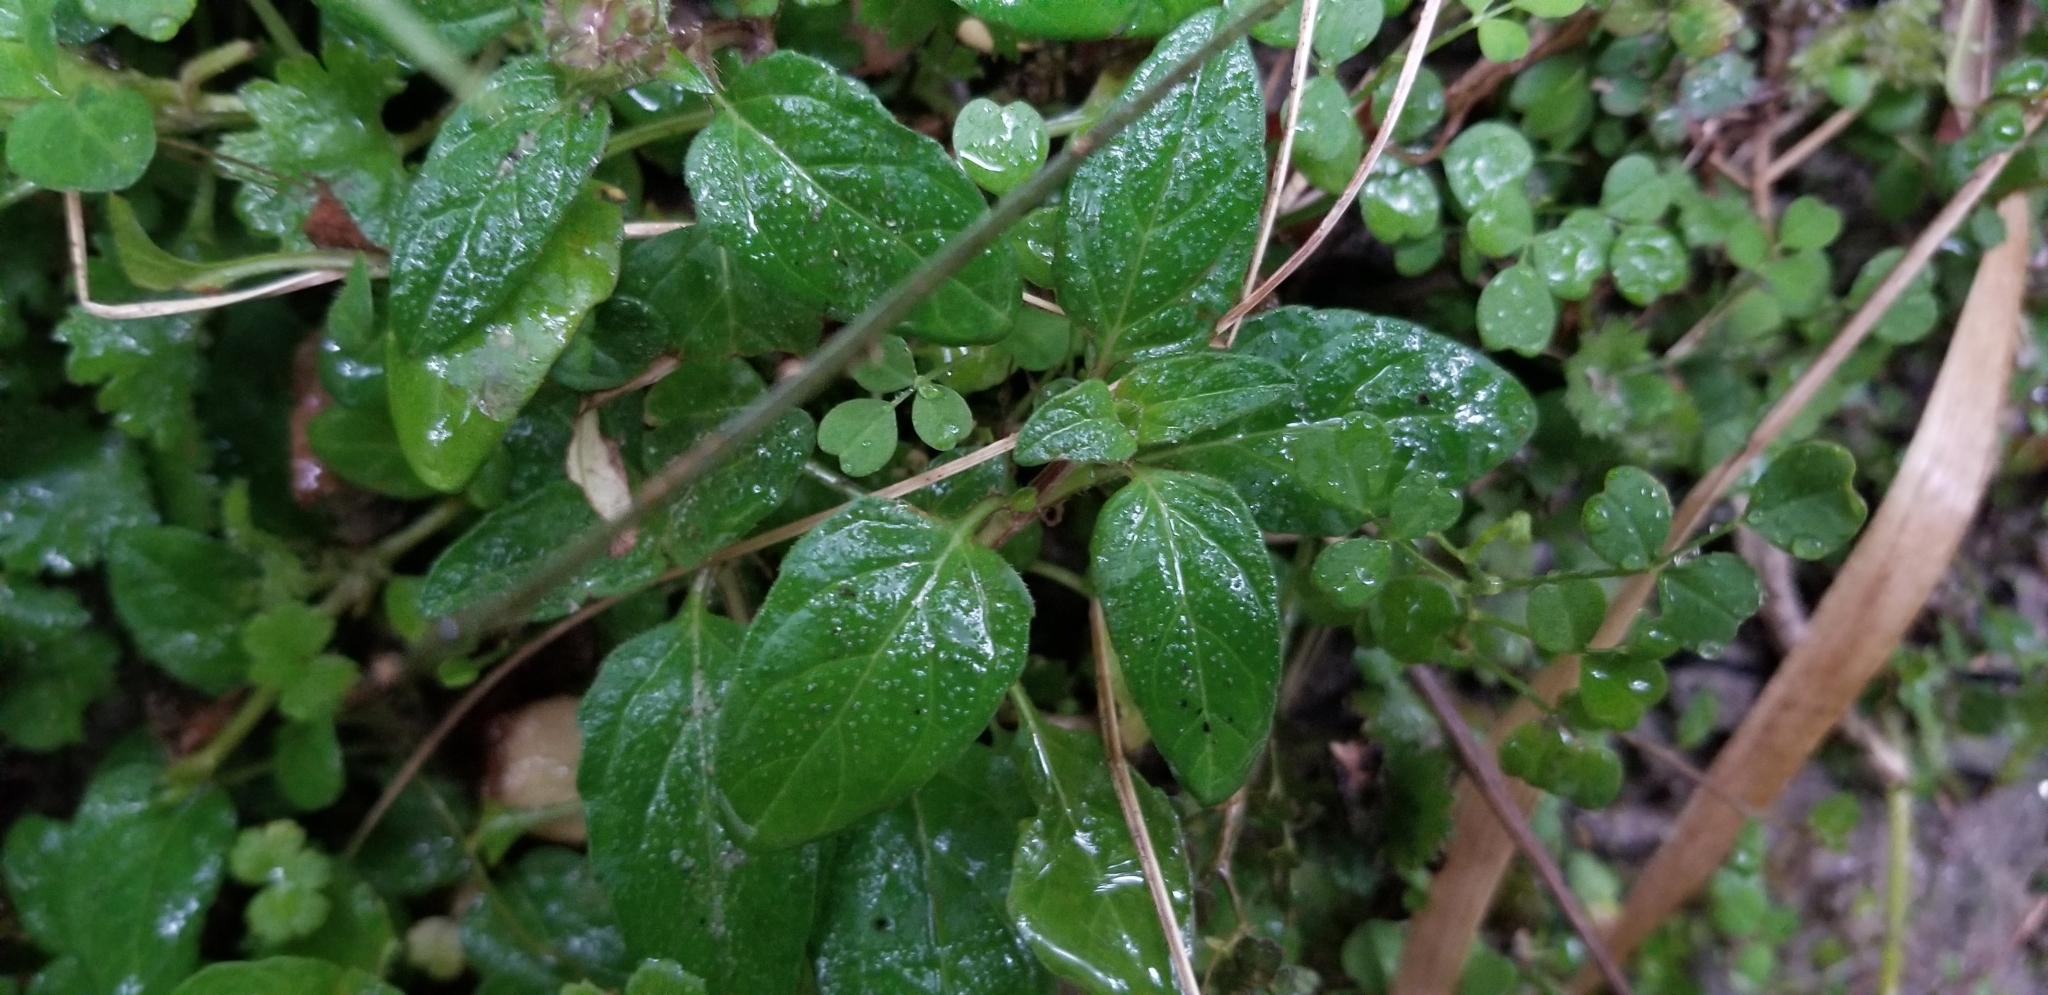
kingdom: Plantae
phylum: Tracheophyta
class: Magnoliopsida
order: Lamiales
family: Lamiaceae
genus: Prunella
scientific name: Prunella vulgaris
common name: Heal-all
